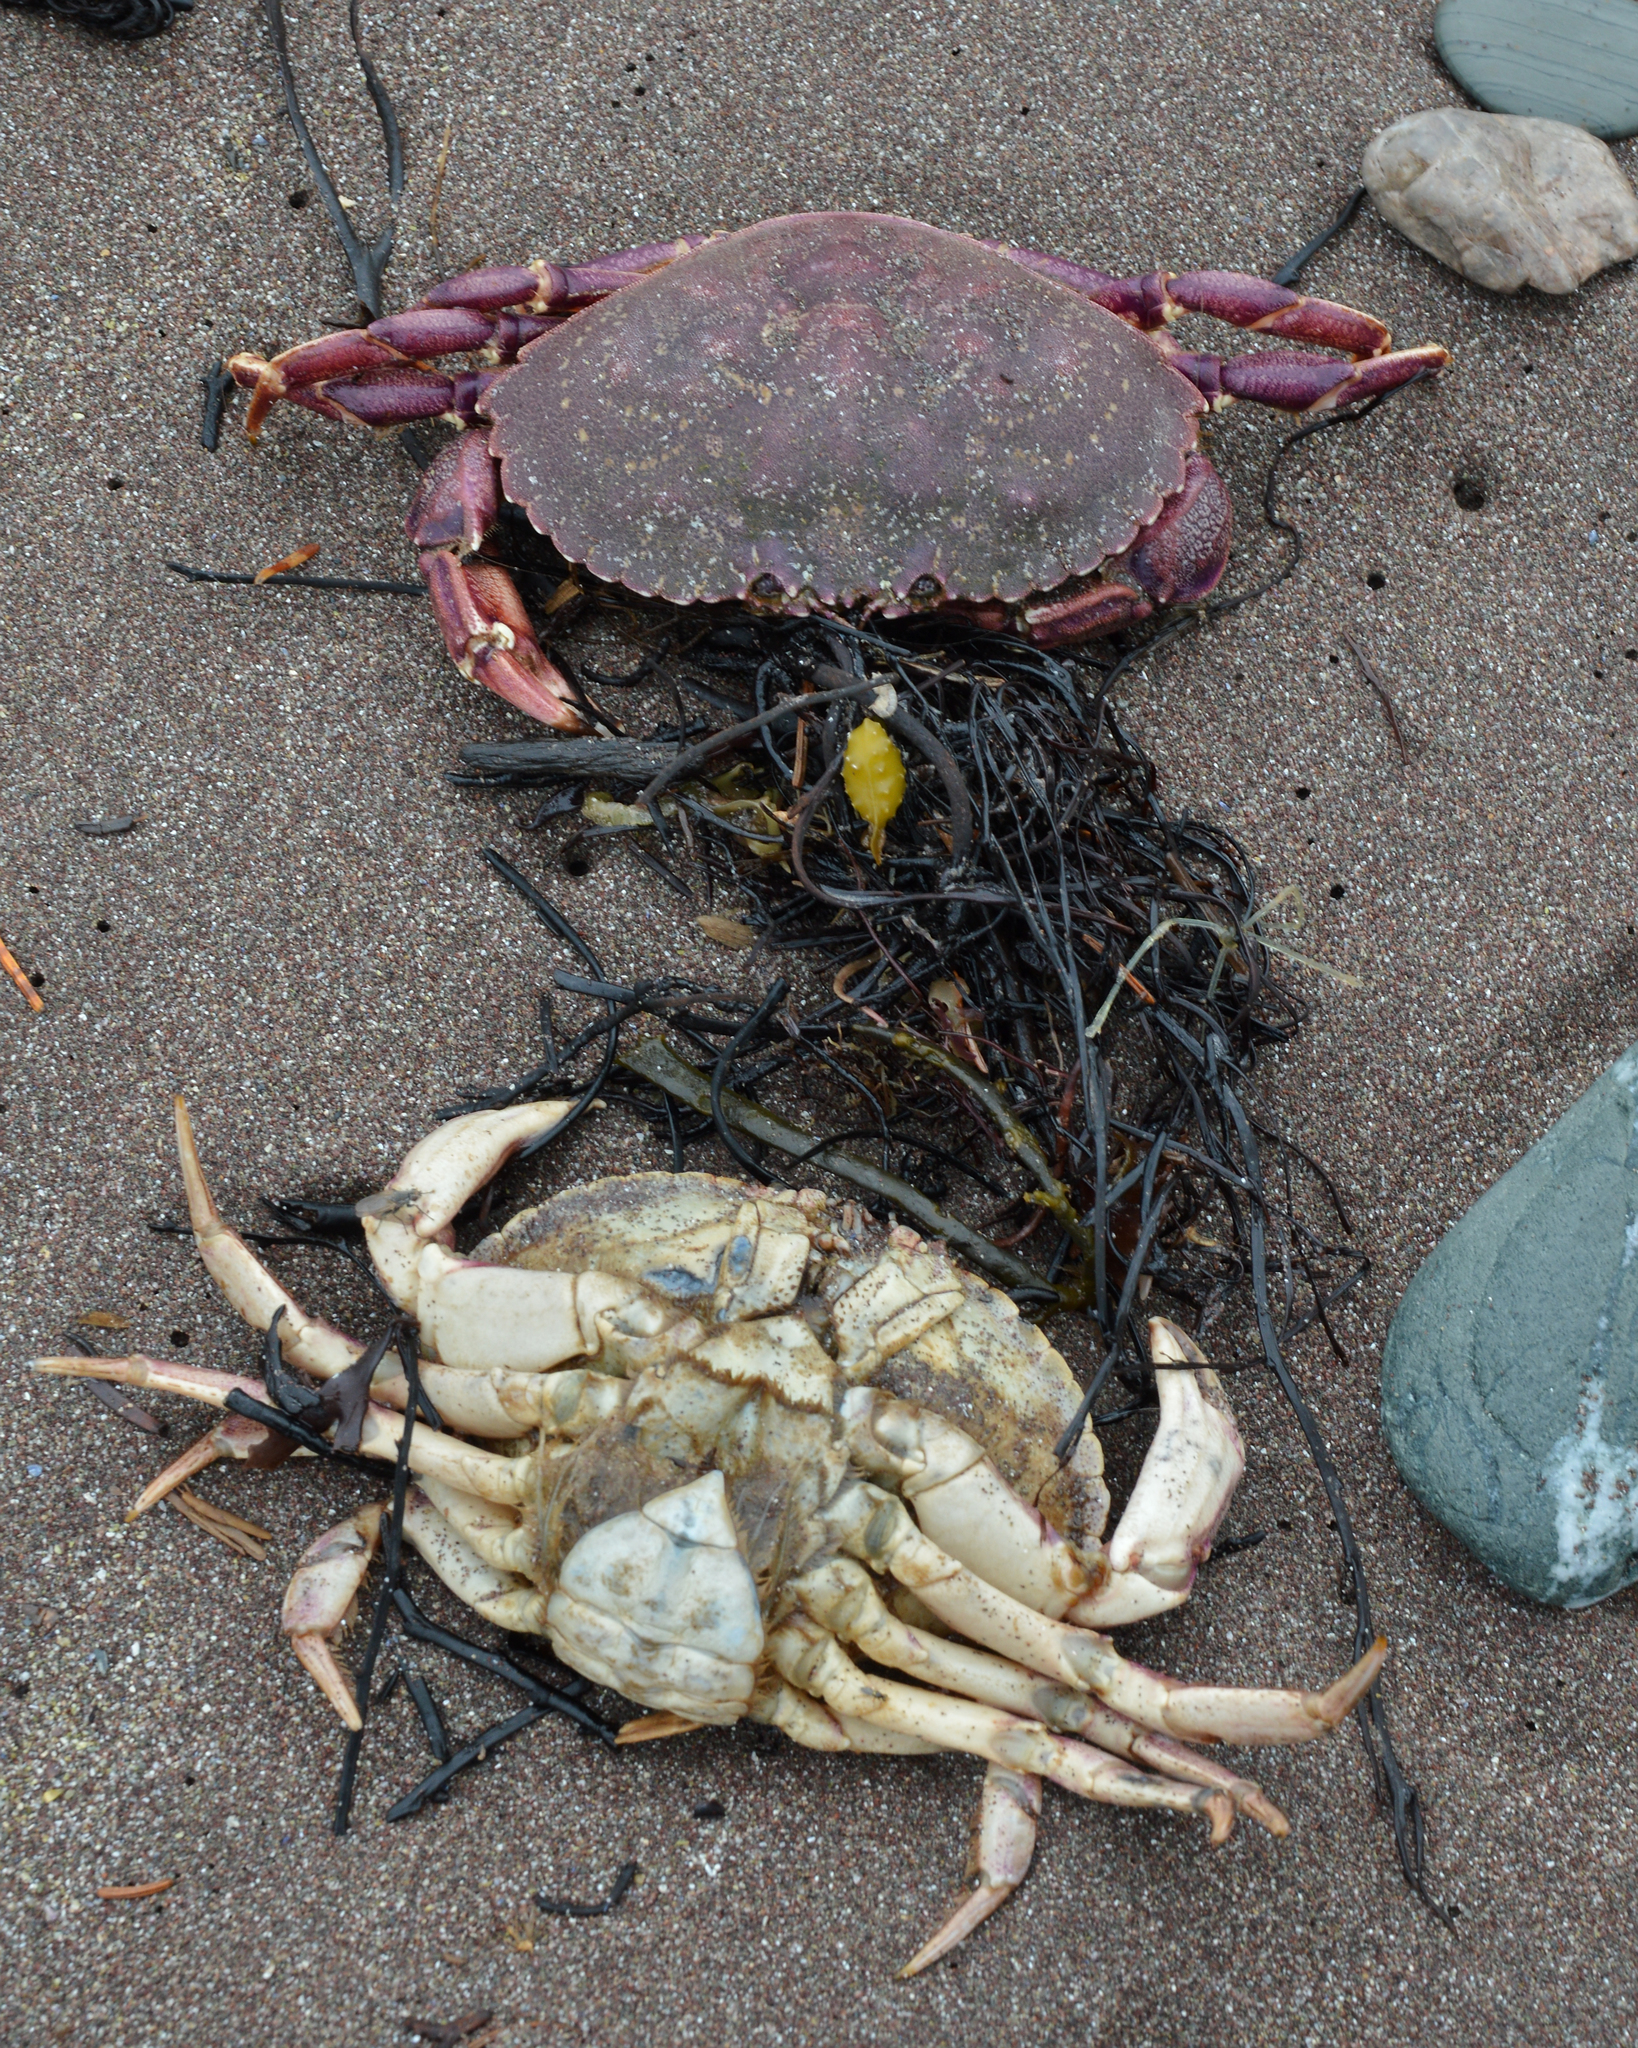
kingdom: Animalia
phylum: Arthropoda
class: Malacostraca
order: Decapoda
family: Cancridae
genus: Cancer
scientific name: Cancer irroratus
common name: Atlantic rock crab
